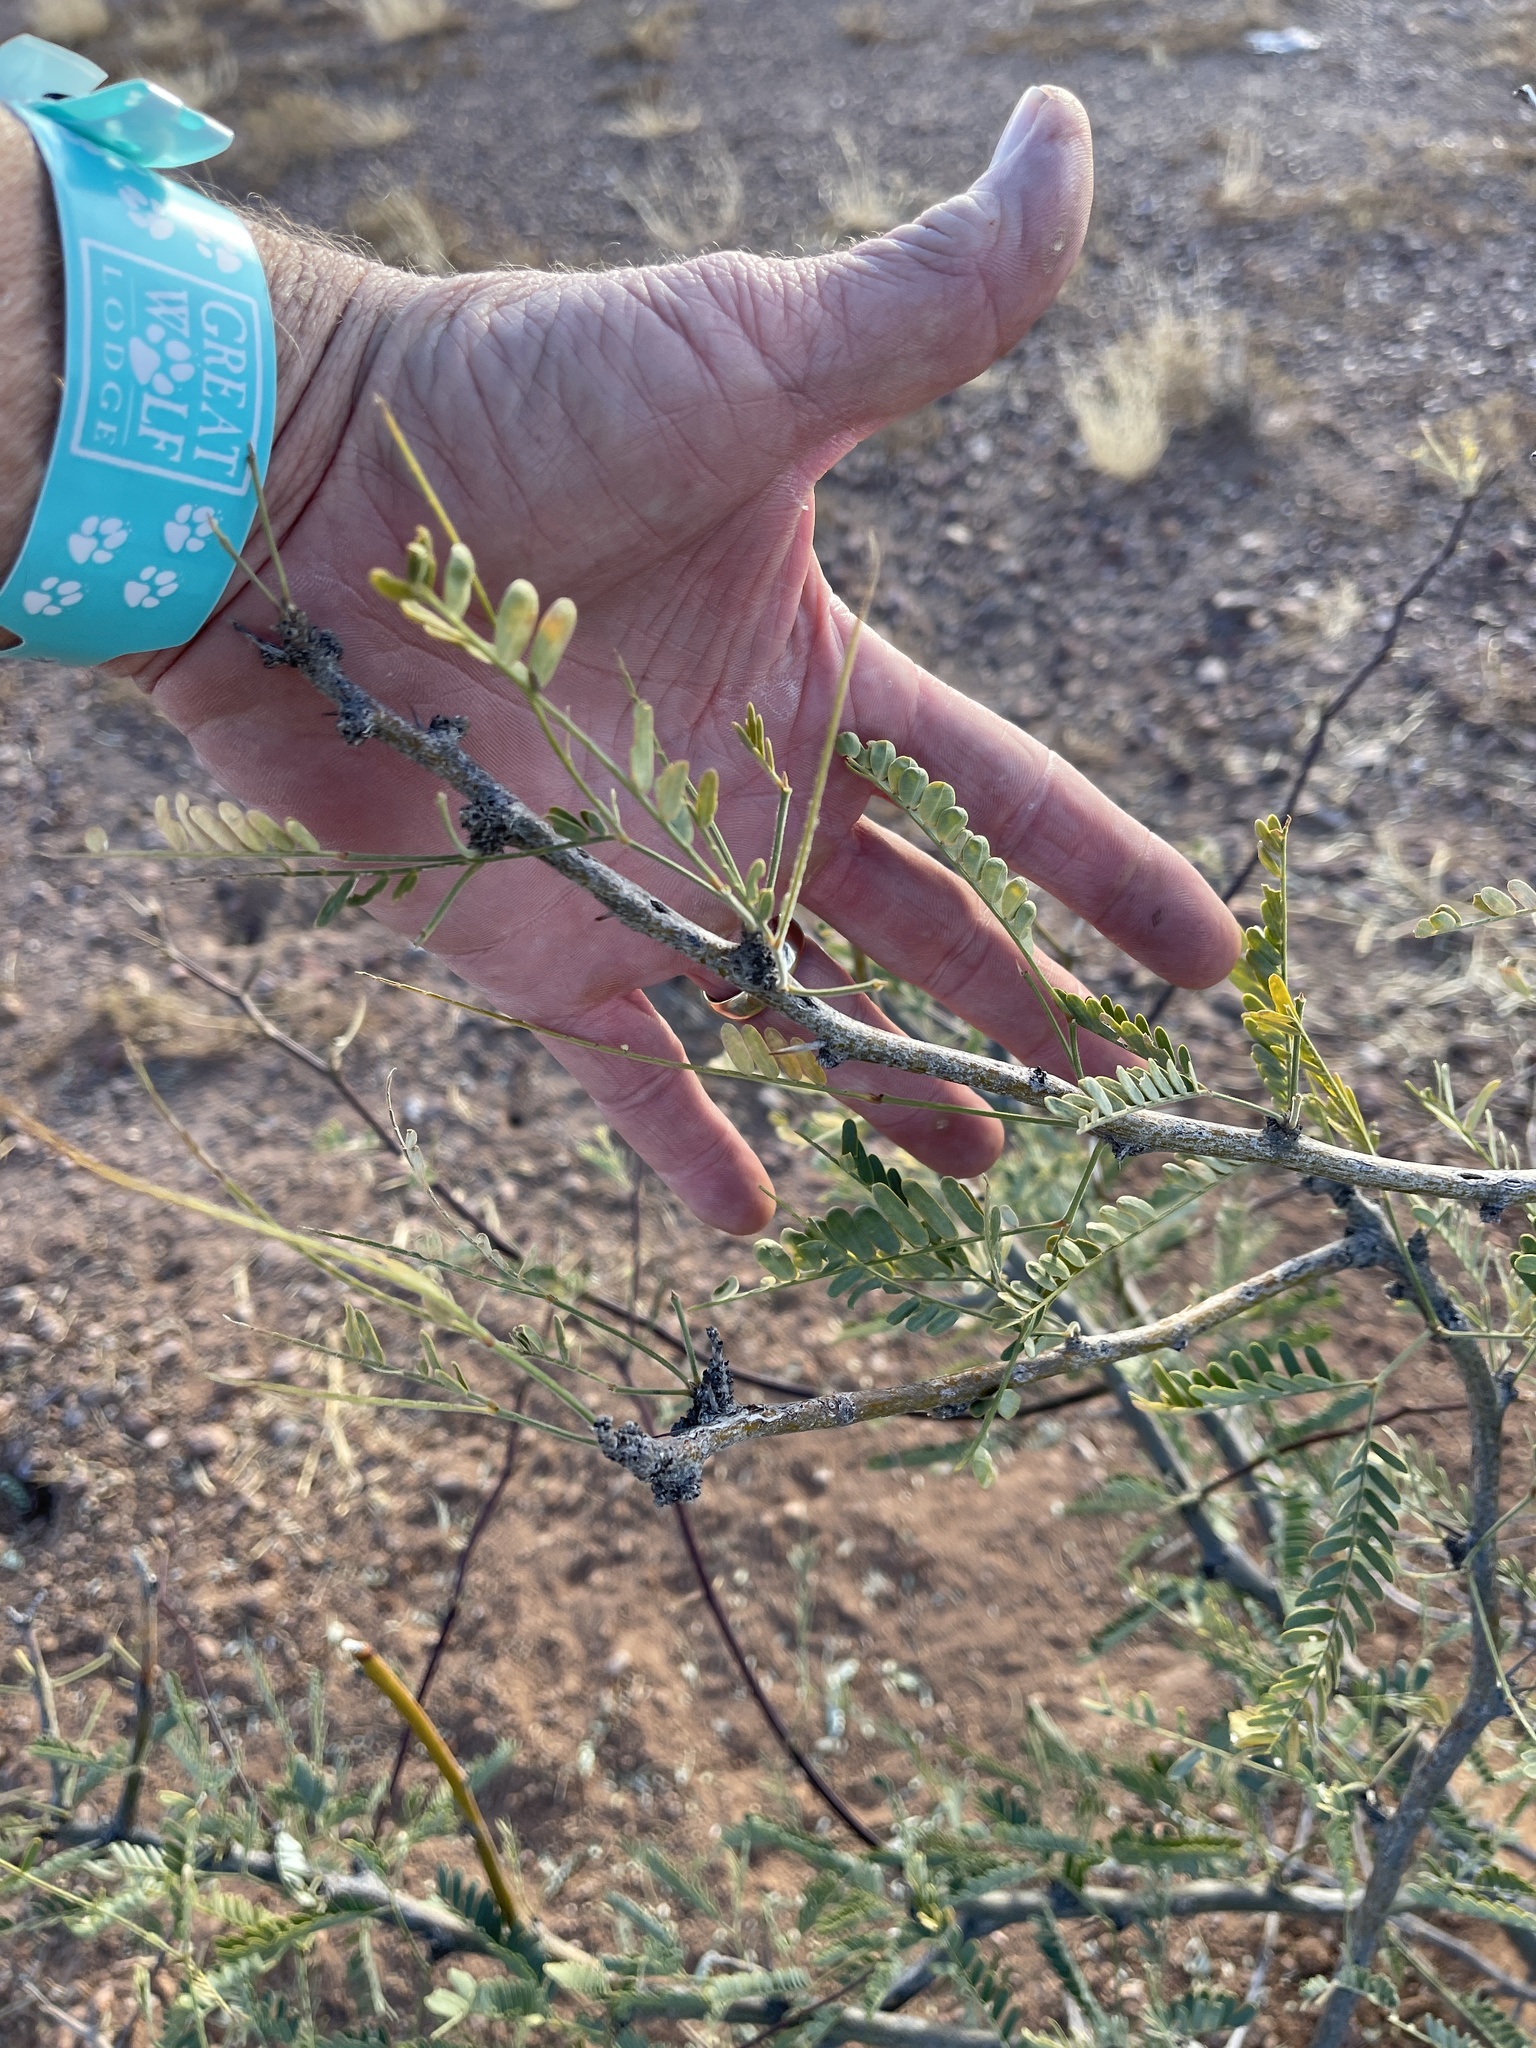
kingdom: Plantae
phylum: Tracheophyta
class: Magnoliopsida
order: Fabales
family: Fabaceae
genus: Prosopis
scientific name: Prosopis velutina
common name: Velvet mesquite
